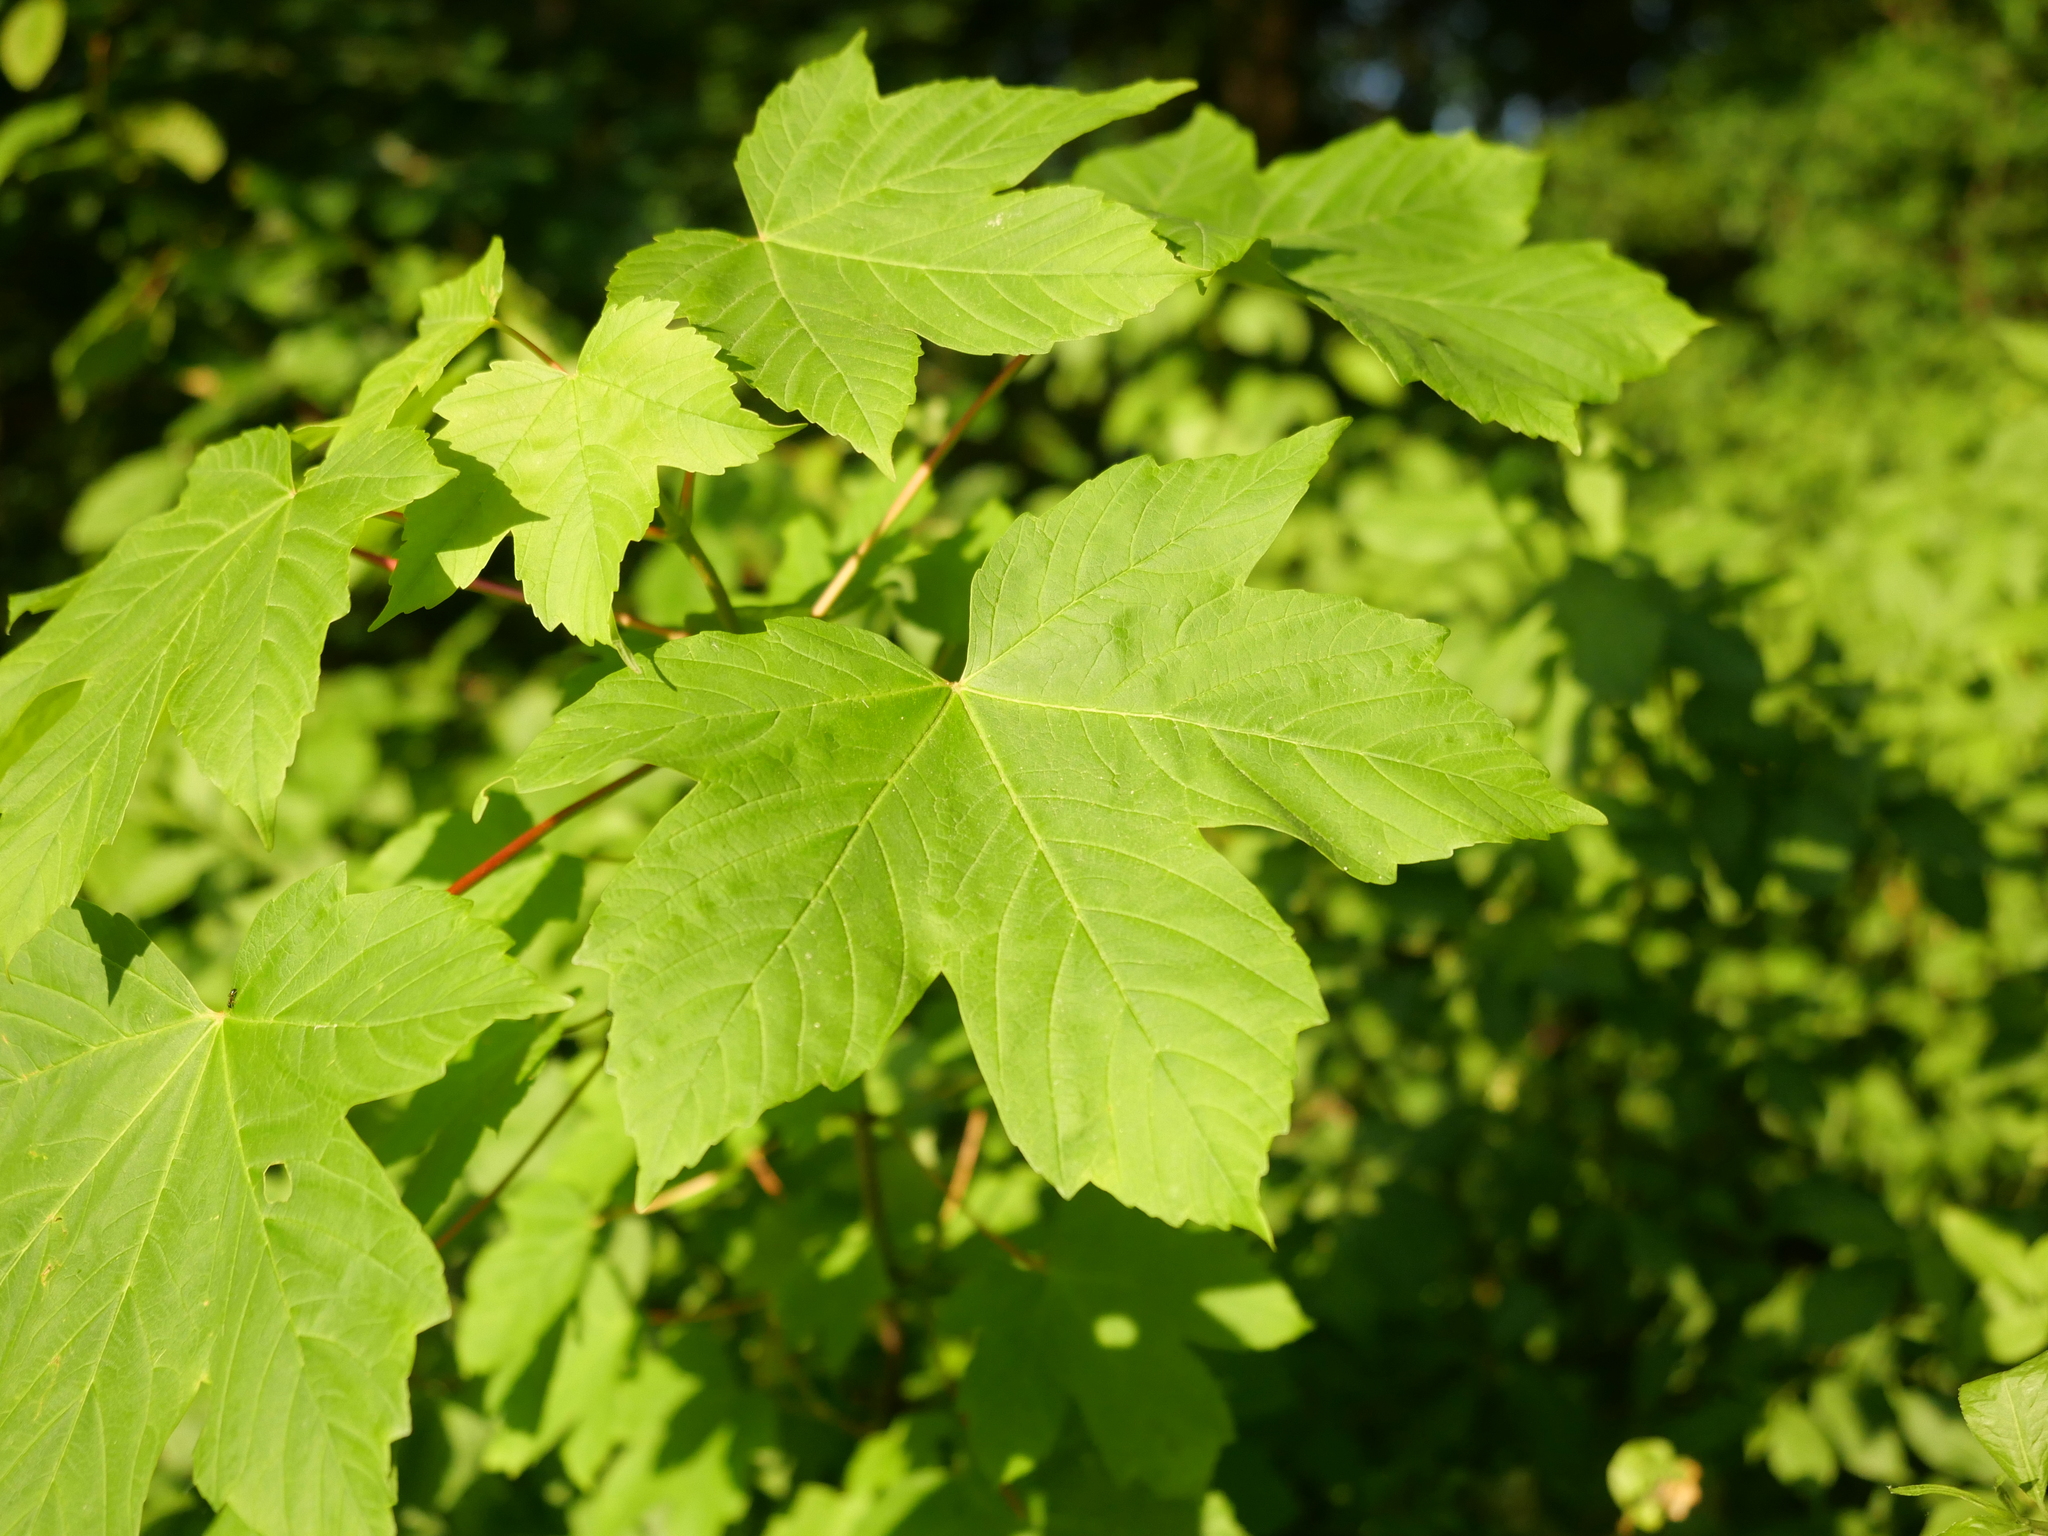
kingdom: Plantae
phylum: Tracheophyta
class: Magnoliopsida
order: Sapindales
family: Sapindaceae
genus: Acer
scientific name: Acer pseudoplatanus
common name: Sycamore
